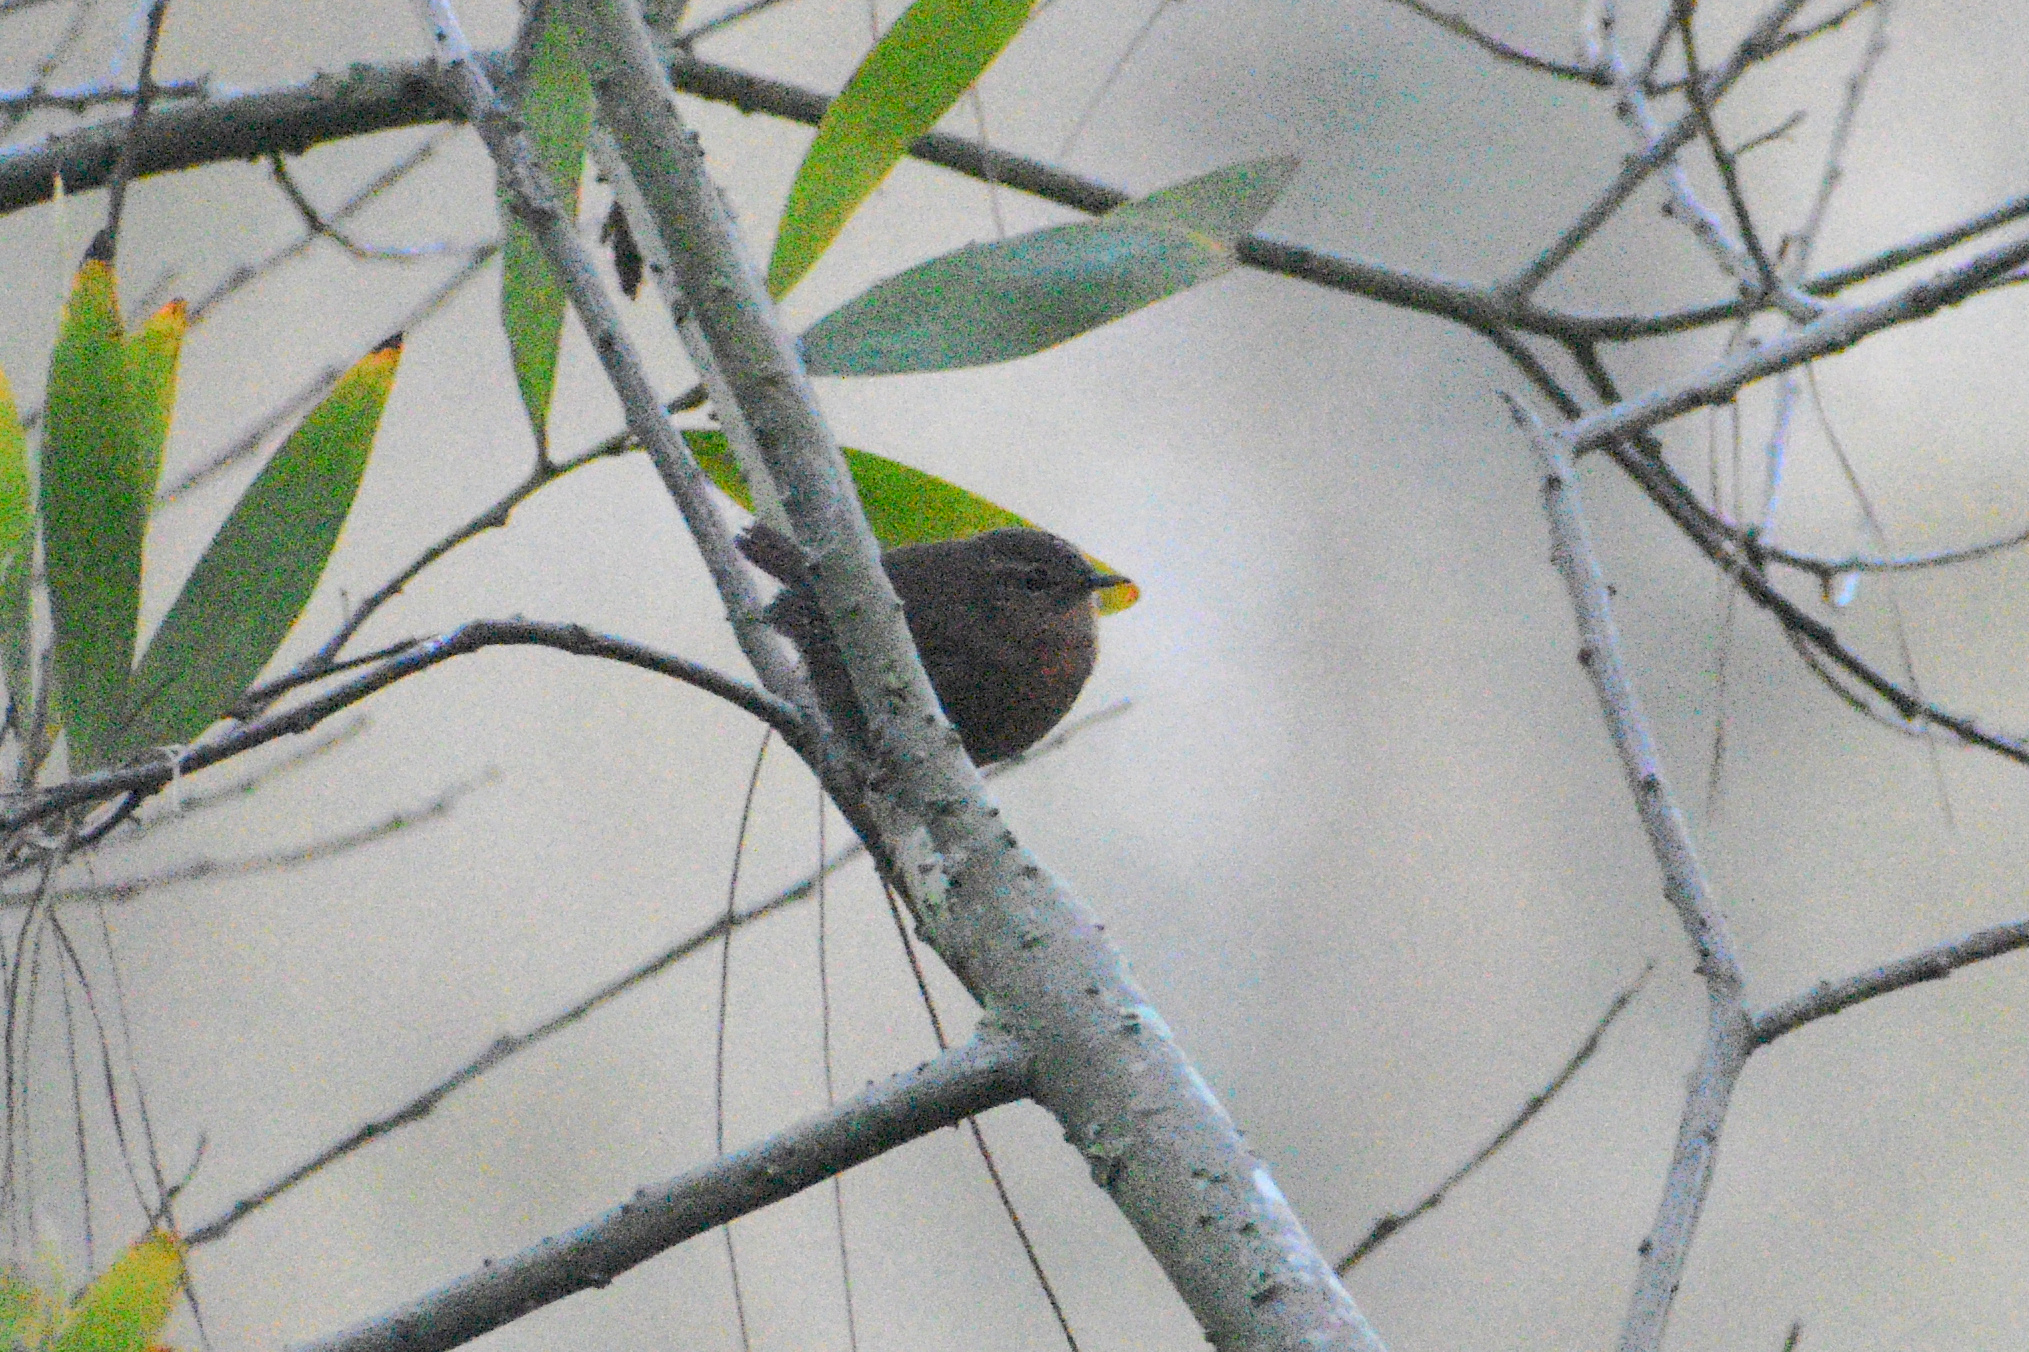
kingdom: Animalia
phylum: Chordata
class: Aves
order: Passeriformes
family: Troglodytidae
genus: Troglodytes
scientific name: Troglodytes pacificus
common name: Pacific wren
